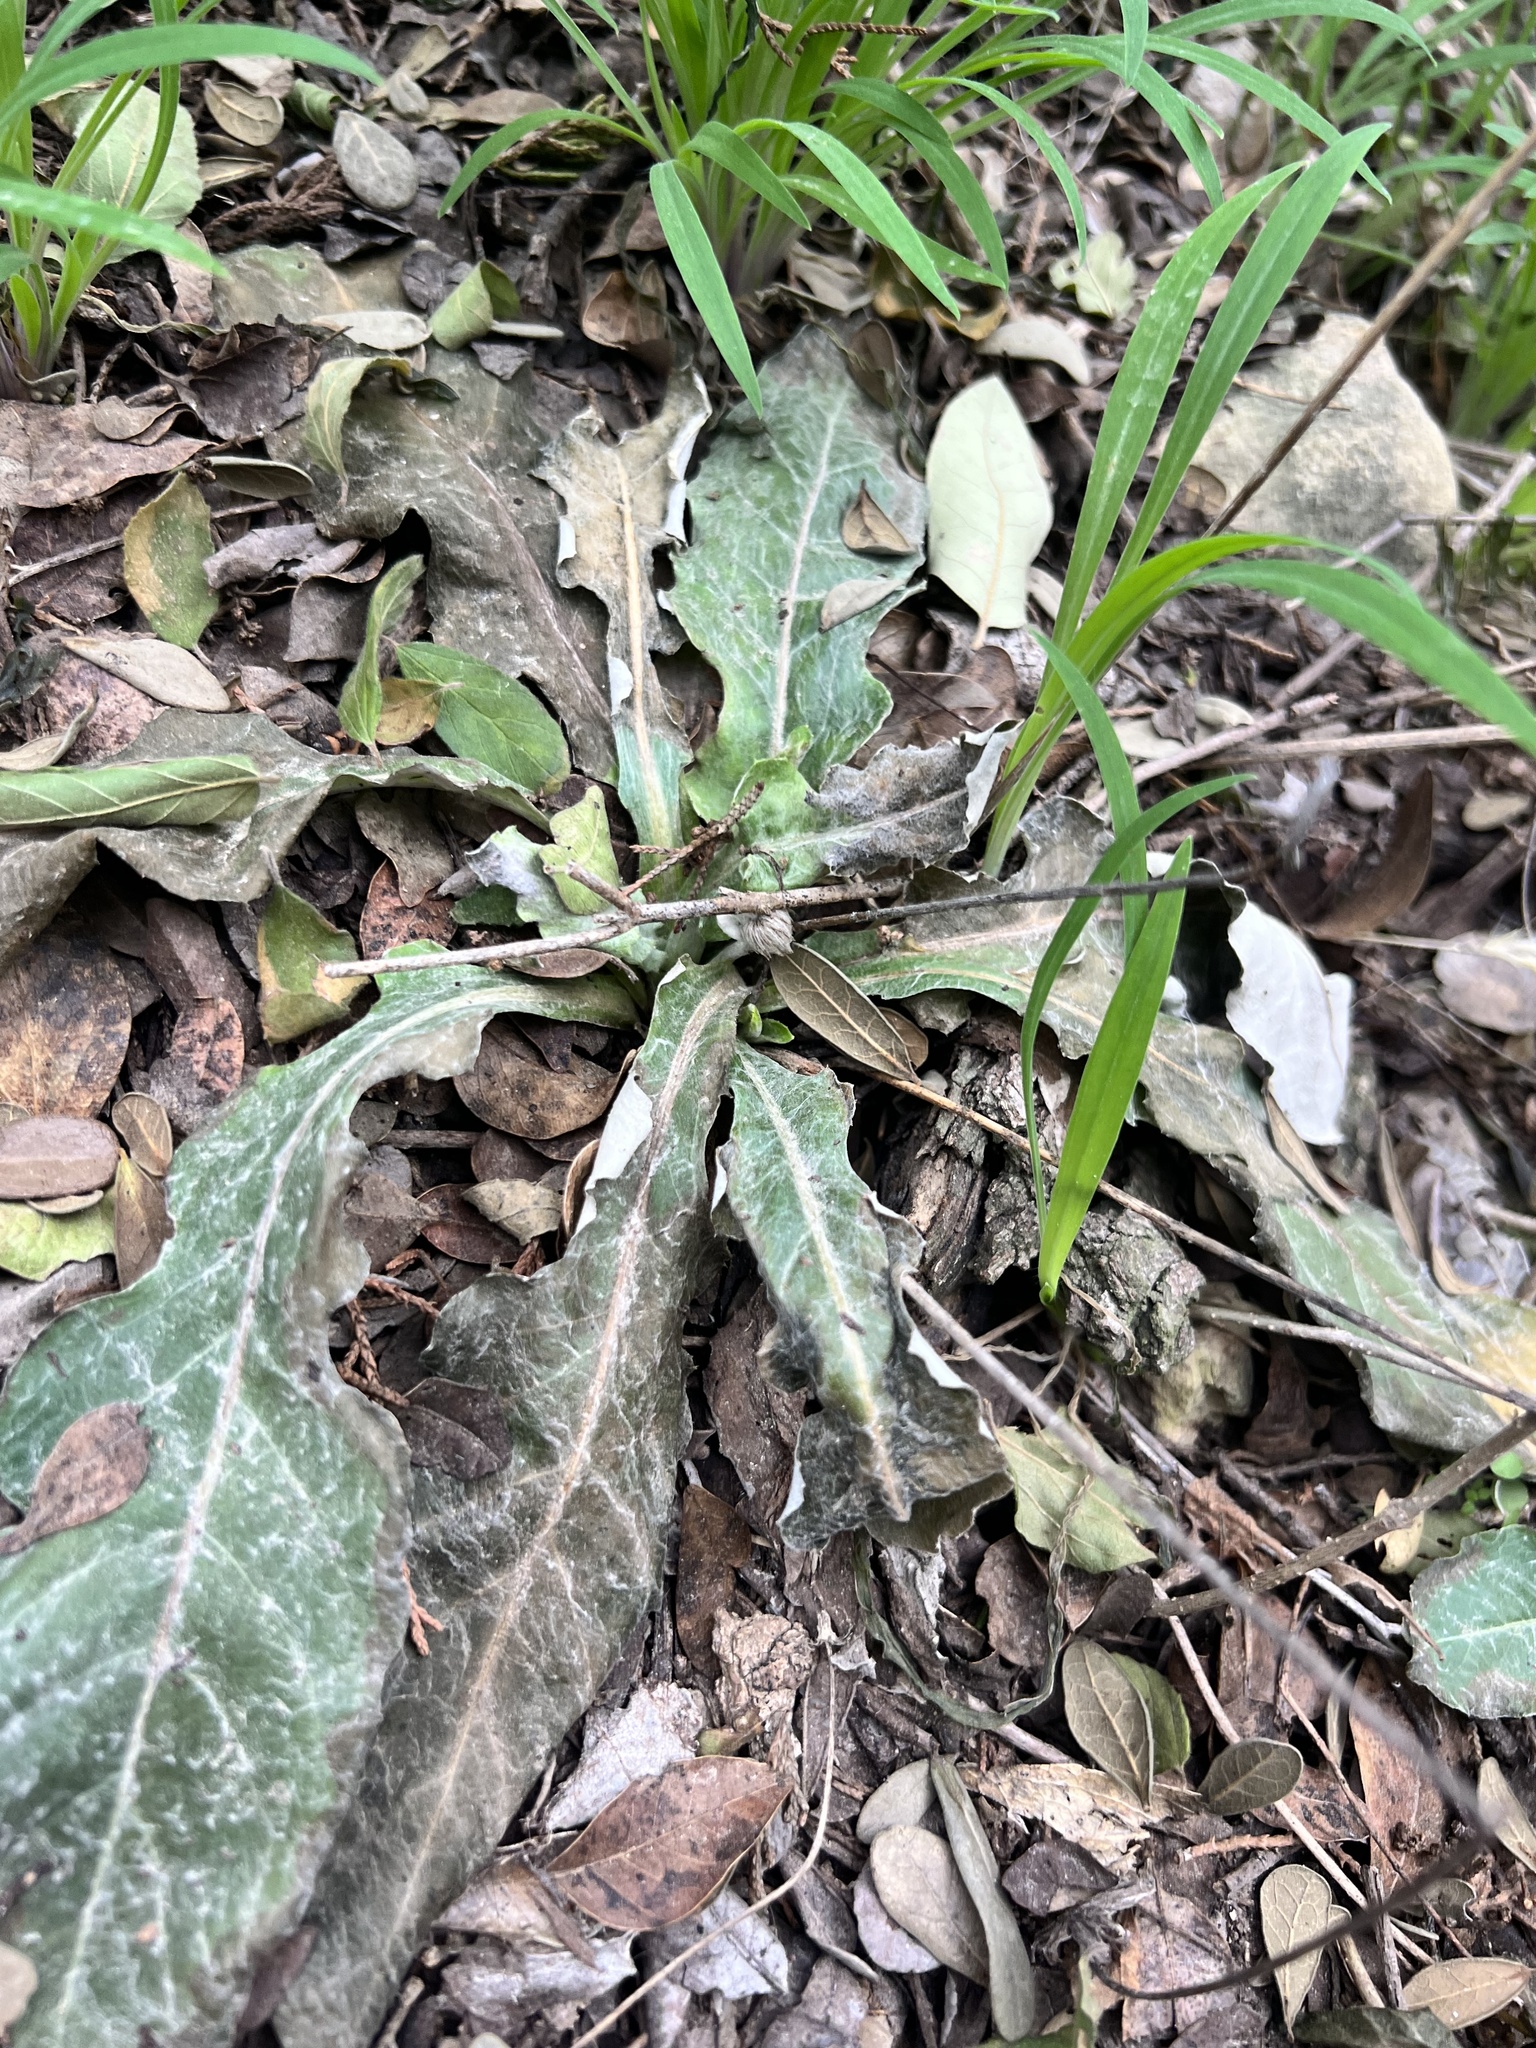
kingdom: Plantae
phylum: Tracheophyta
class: Magnoliopsida
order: Asterales
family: Asteraceae
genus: Chaptalia
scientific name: Chaptalia texana
